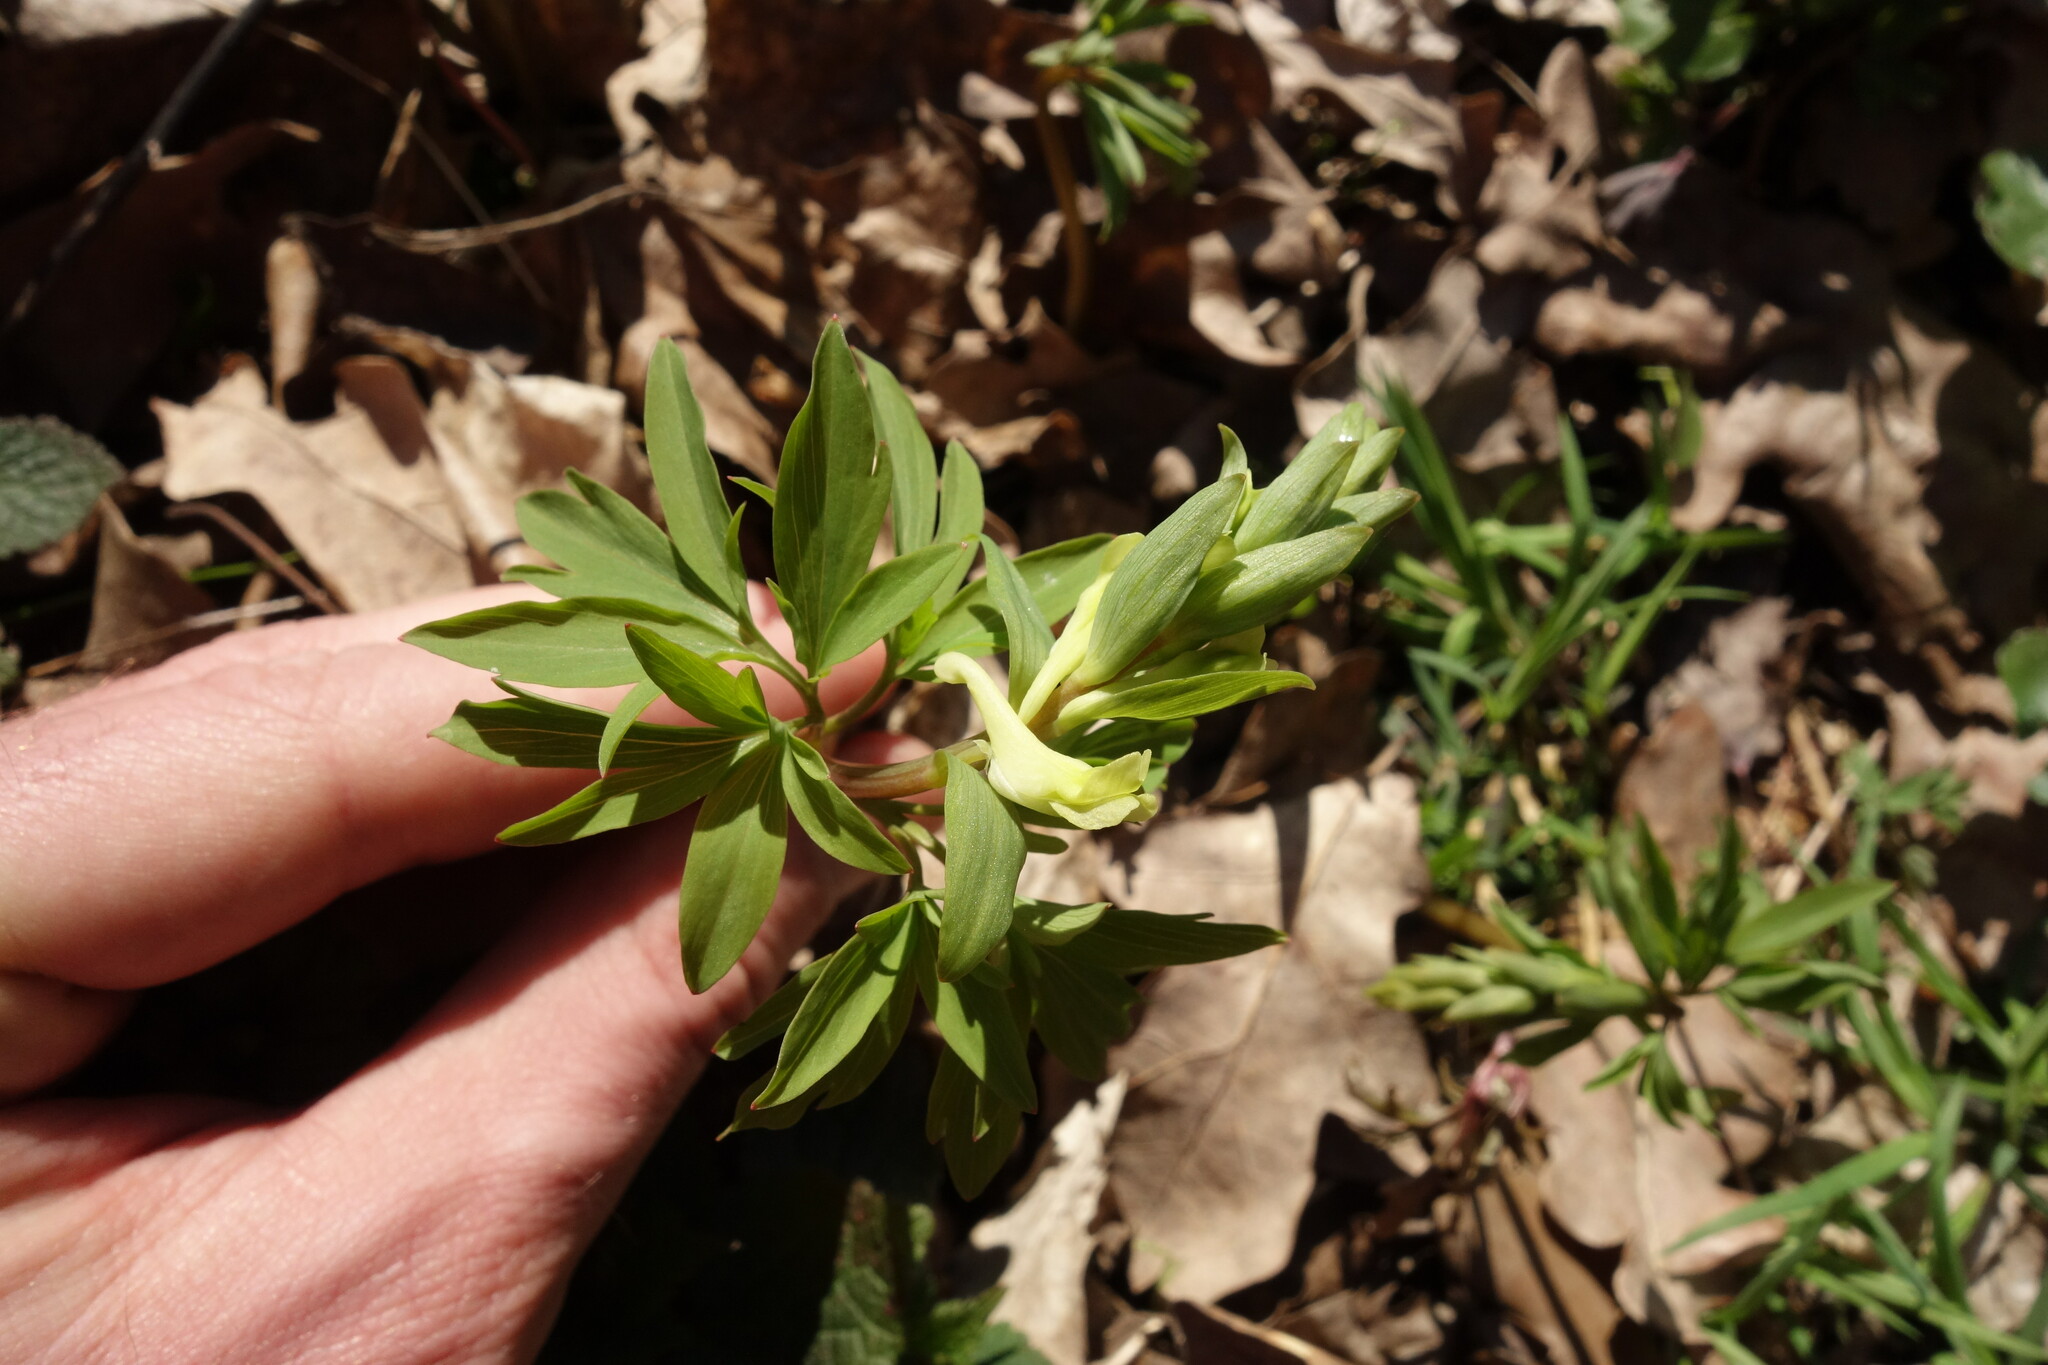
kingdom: Plantae
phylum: Tracheophyta
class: Magnoliopsida
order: Ranunculales
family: Papaveraceae
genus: Corydalis
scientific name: Corydalis cava
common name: Hollowroot
